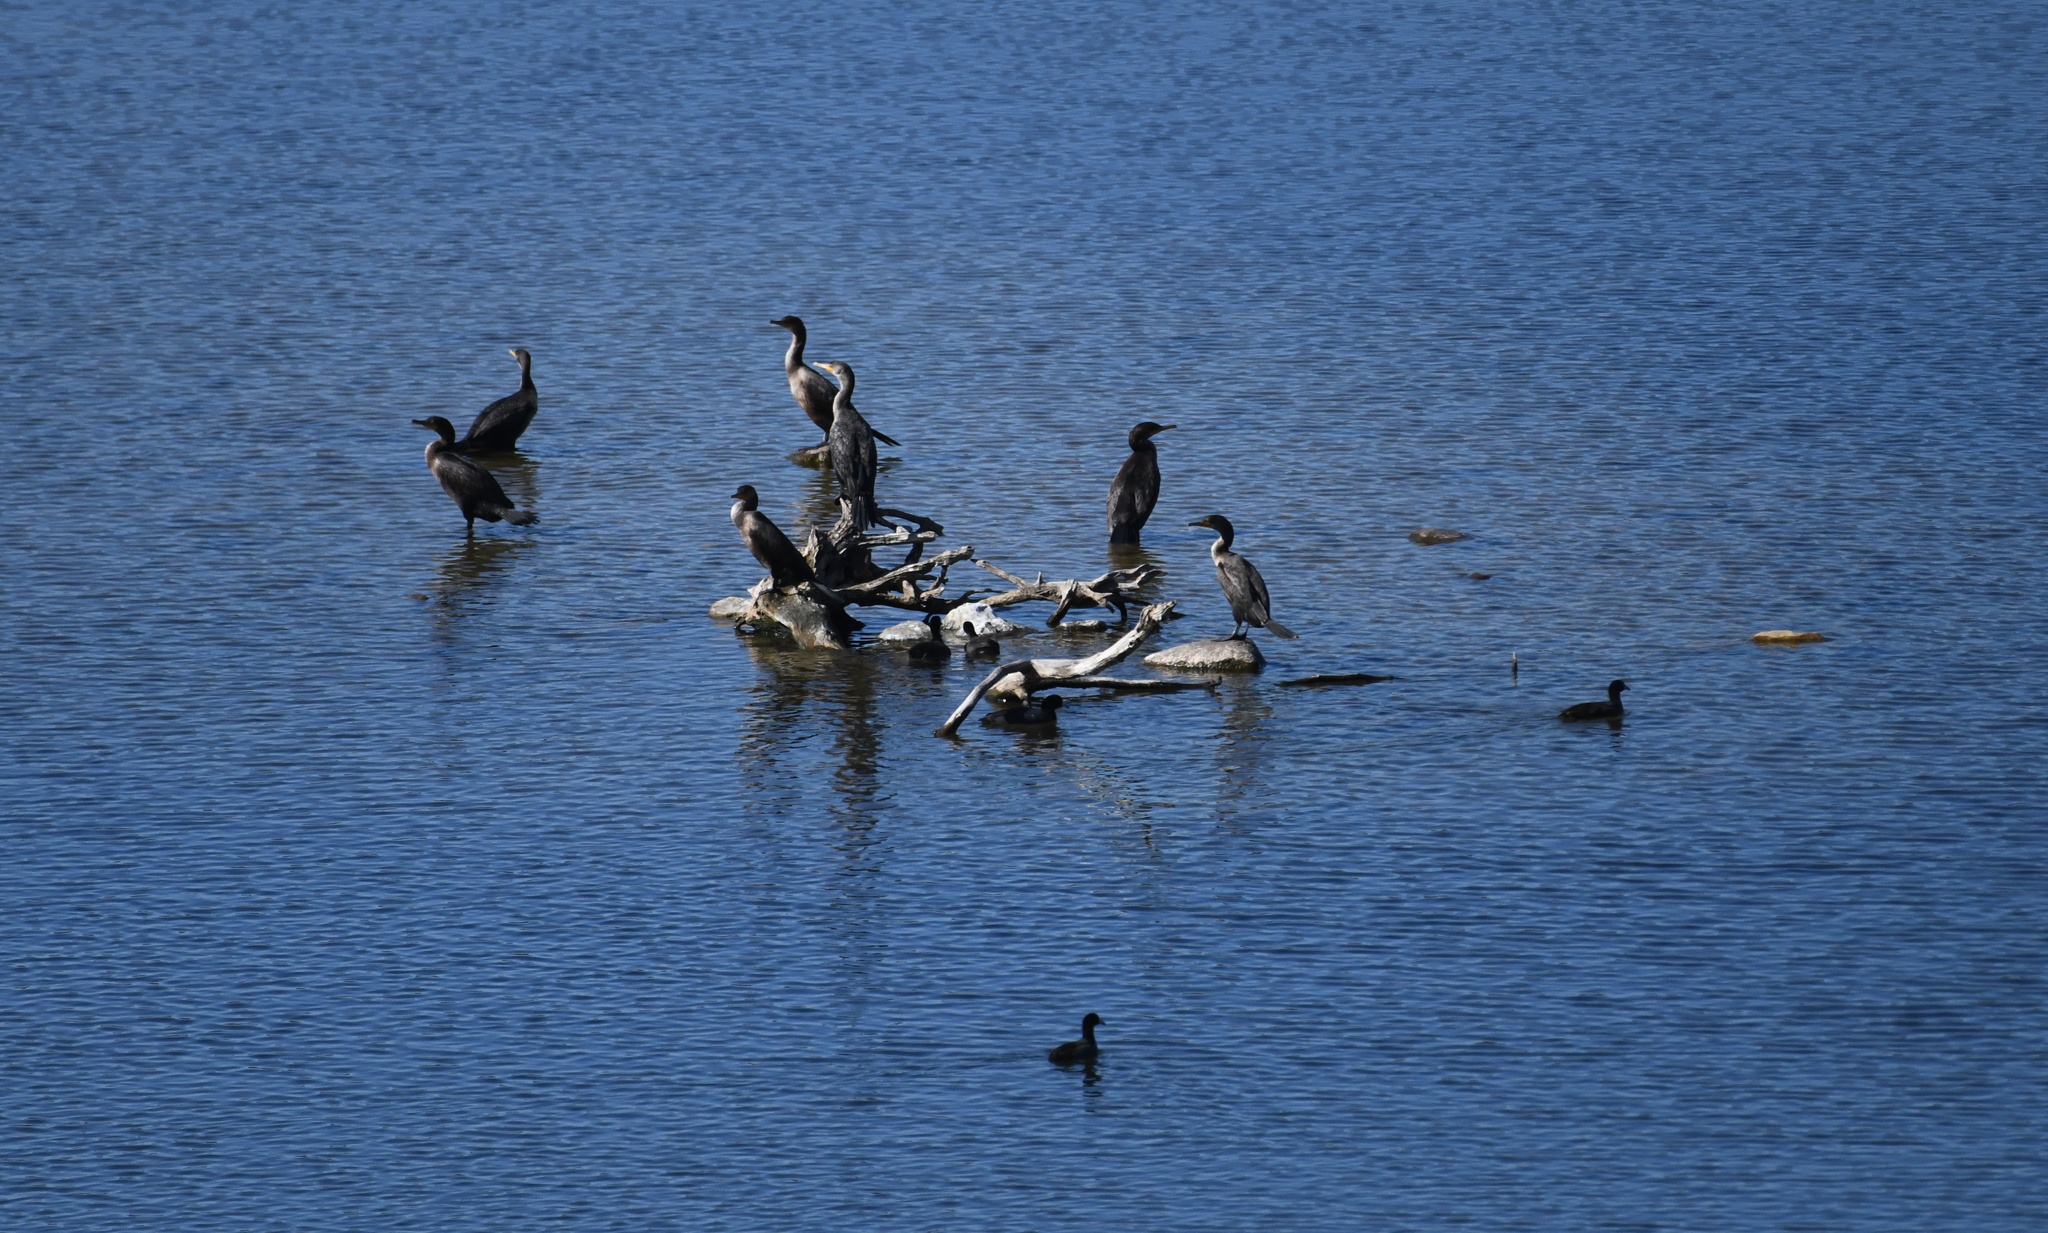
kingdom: Animalia
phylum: Chordata
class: Aves
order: Suliformes
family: Phalacrocoracidae
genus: Phalacrocorax
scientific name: Phalacrocorax auritus
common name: Double-crested cormorant
